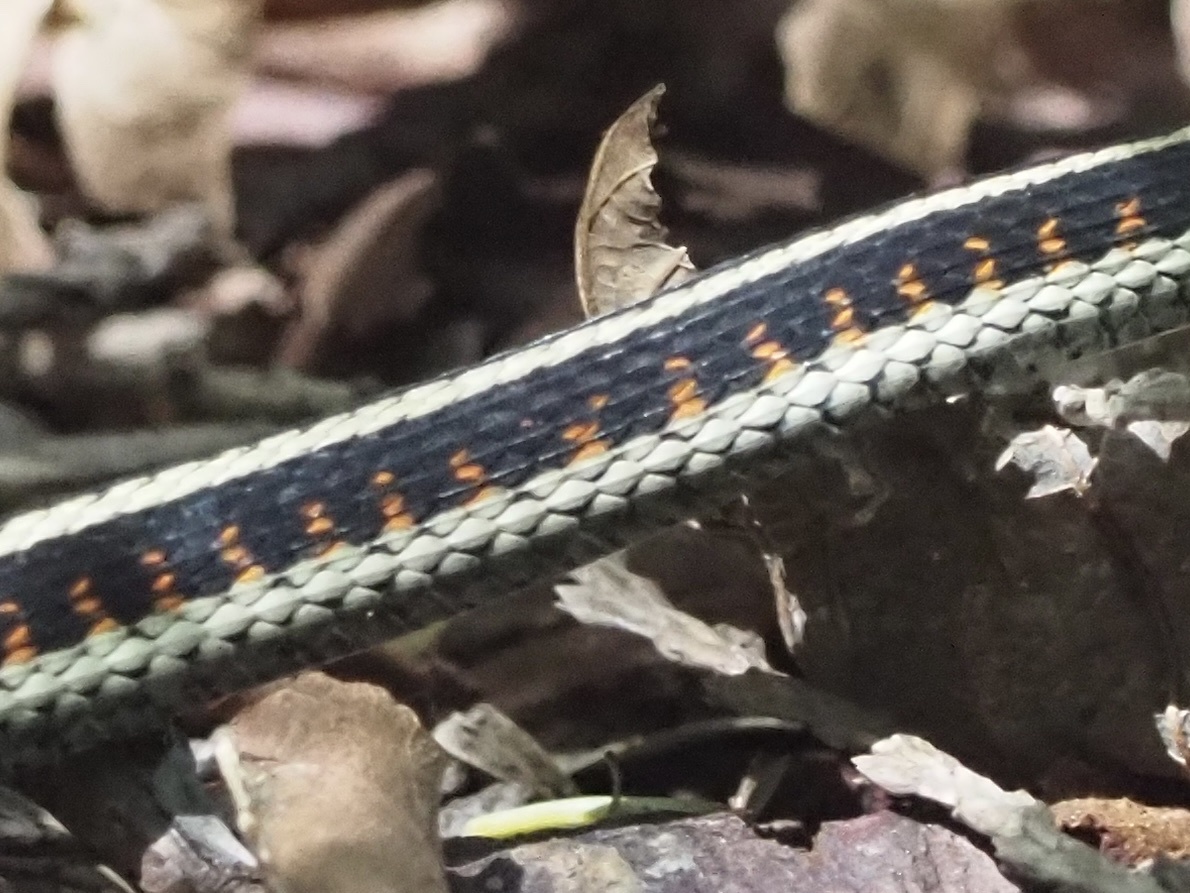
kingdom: Animalia
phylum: Chordata
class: Squamata
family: Colubridae
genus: Thamnophis
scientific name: Thamnophis sirtalis
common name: Common garter snake
